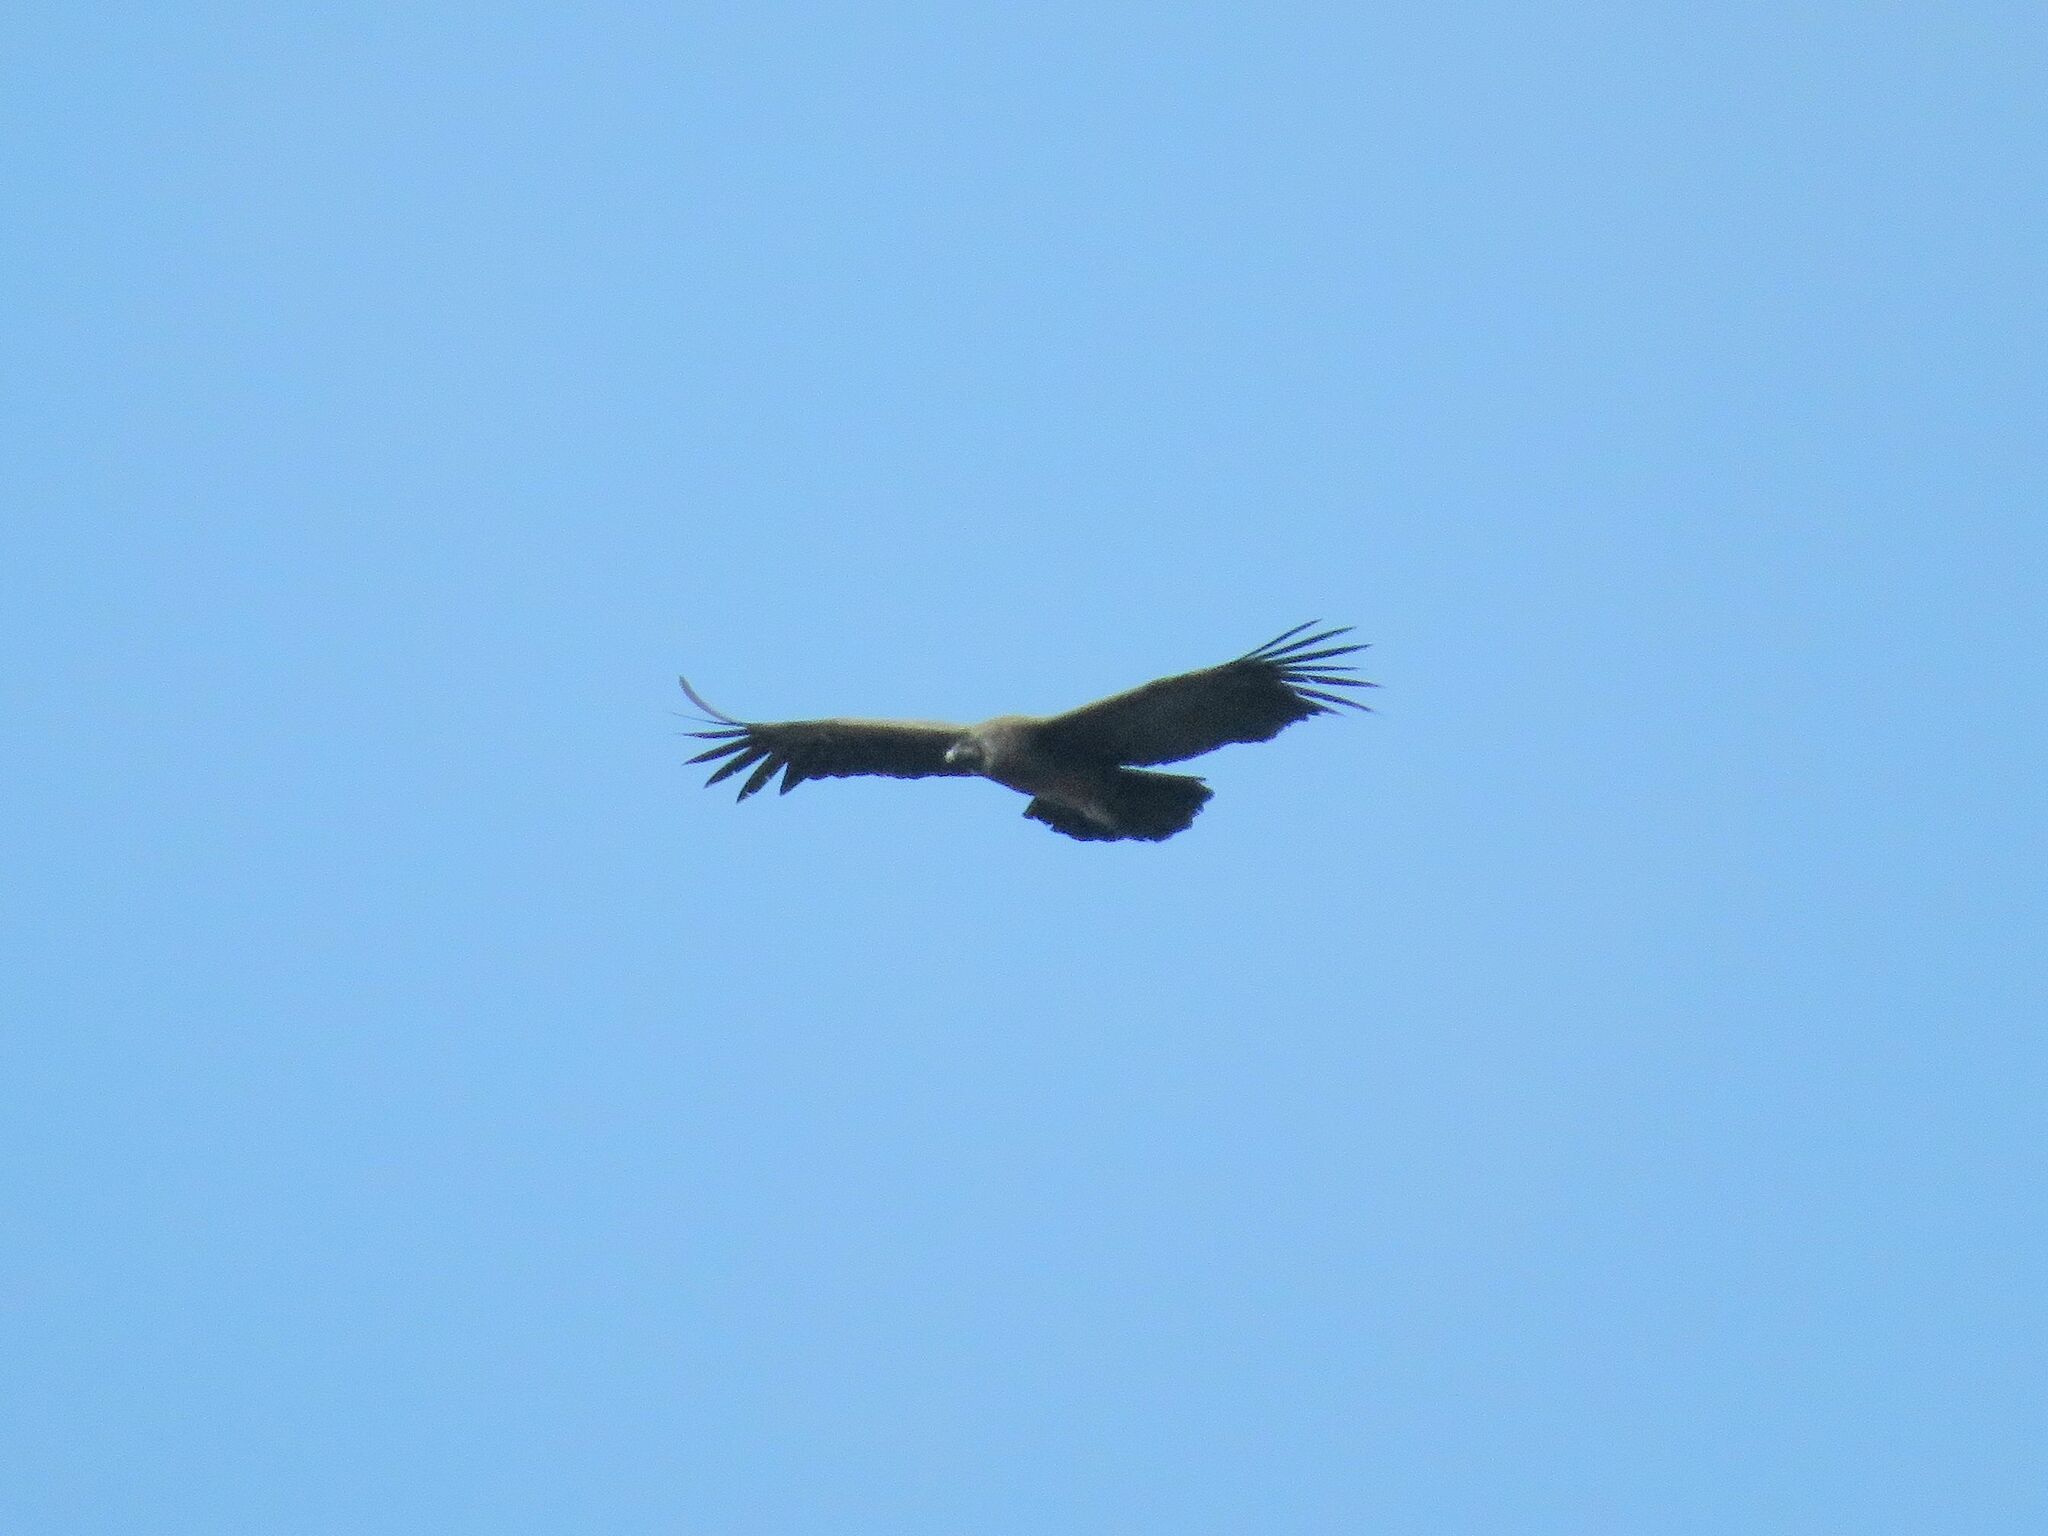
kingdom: Animalia
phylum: Chordata
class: Aves
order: Accipitriformes
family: Cathartidae
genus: Vultur
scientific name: Vultur gryphus
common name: Andean condor
